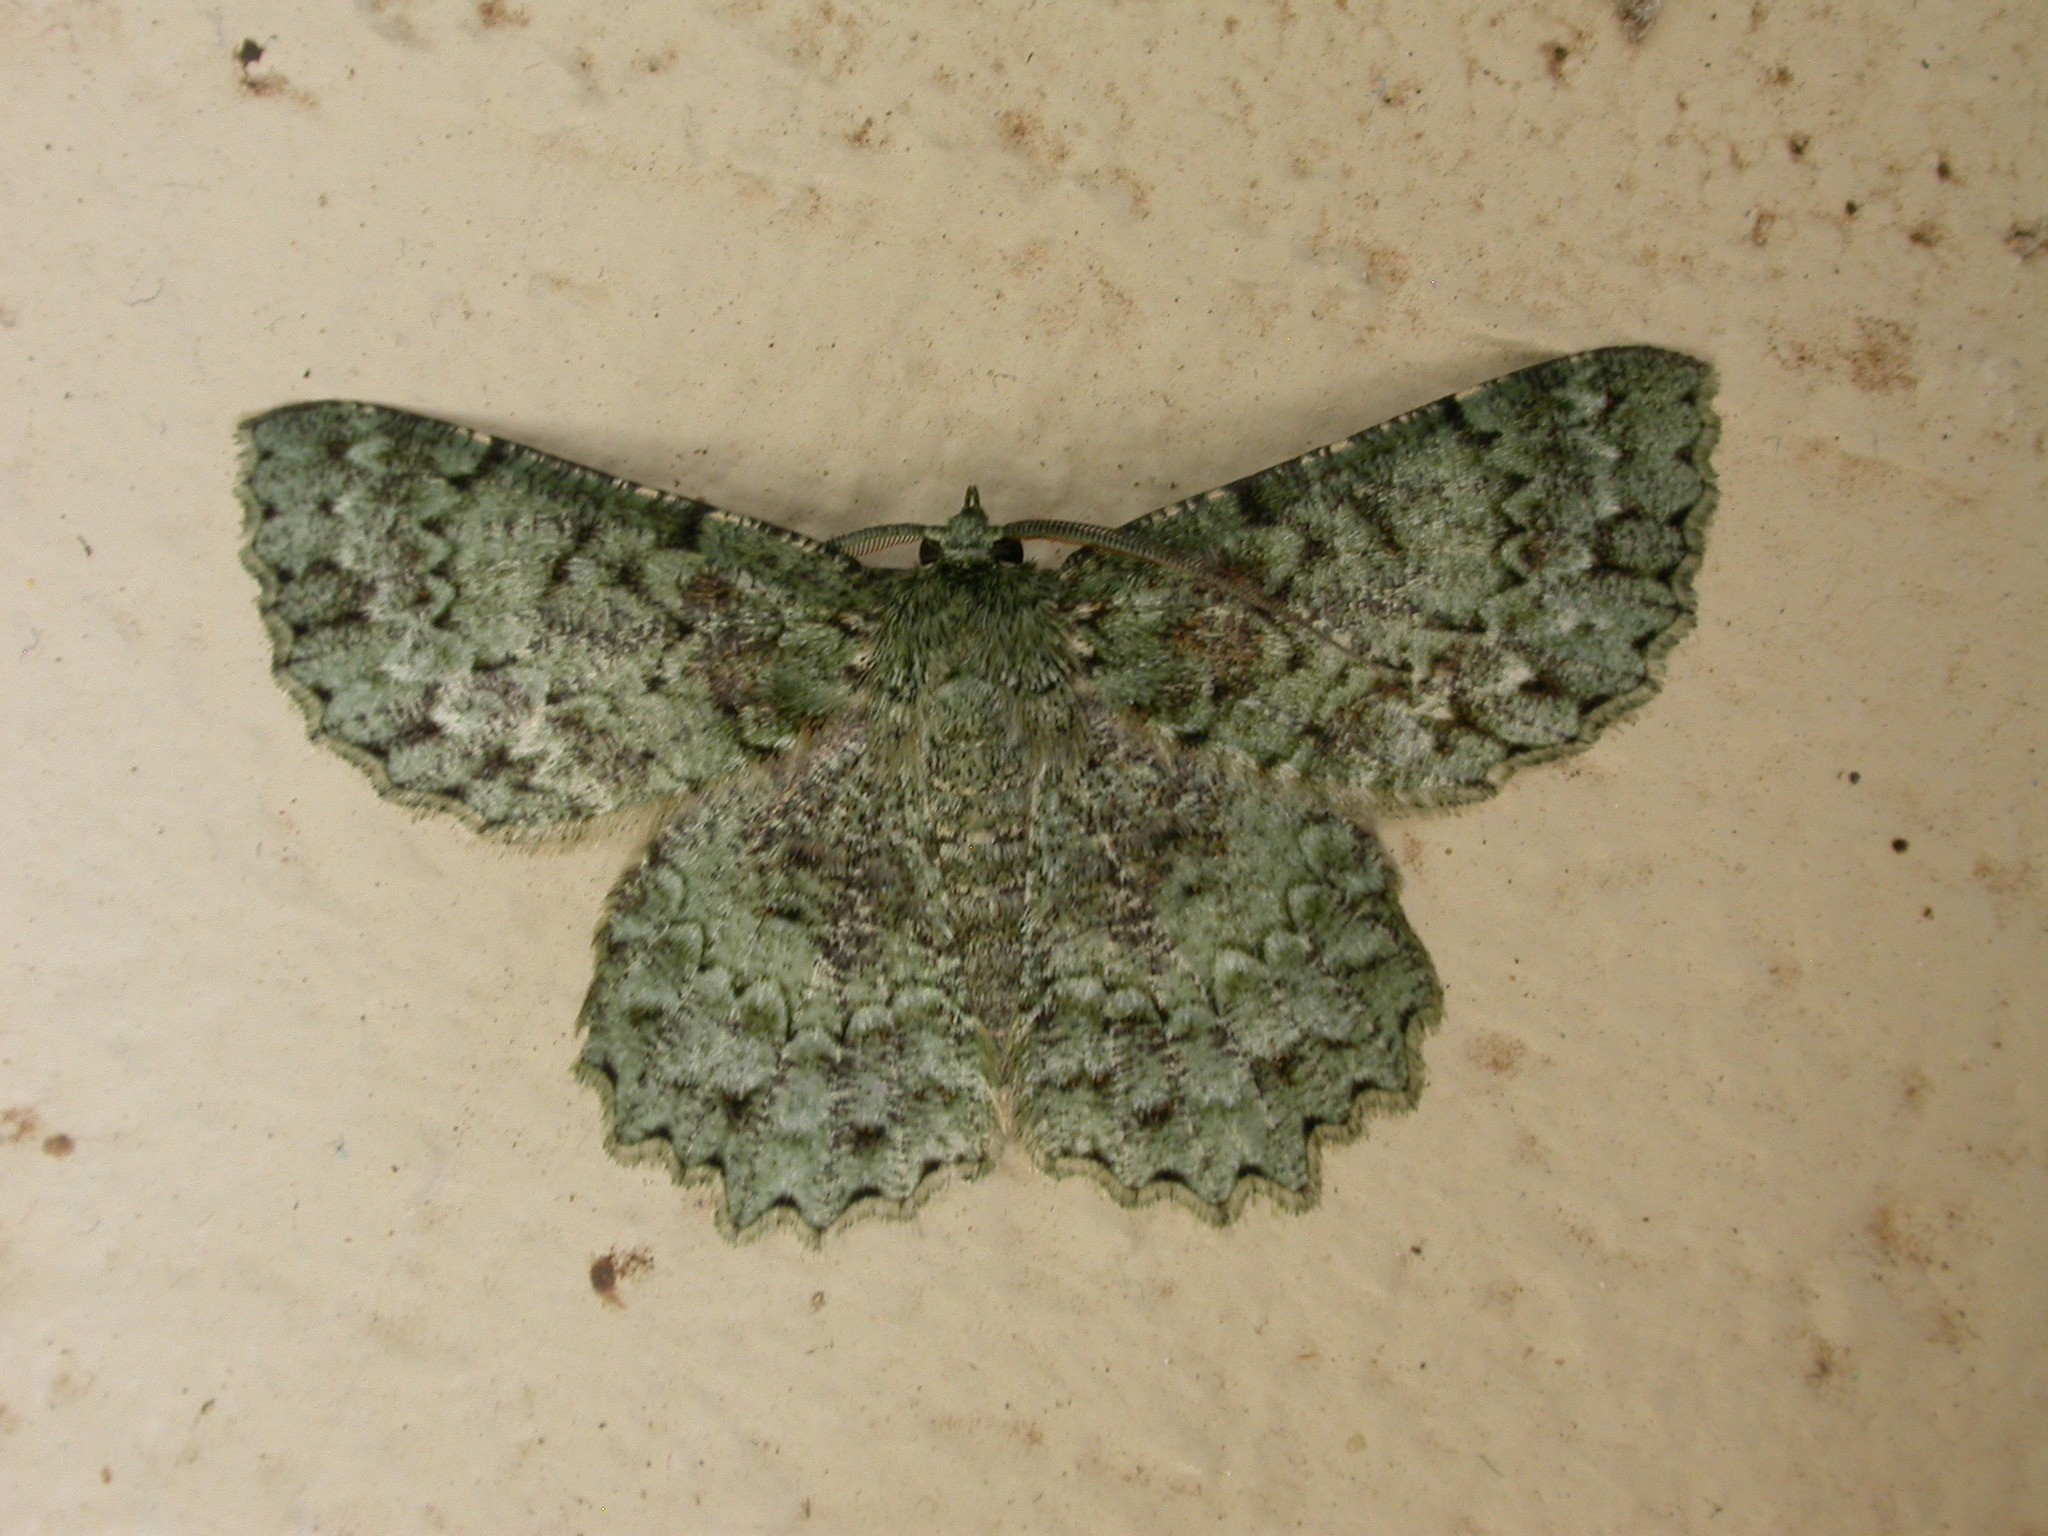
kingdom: Animalia
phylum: Arthropoda
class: Insecta
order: Lepidoptera
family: Geometridae
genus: Hypodoxa
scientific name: Hypodoxa muscosaria
